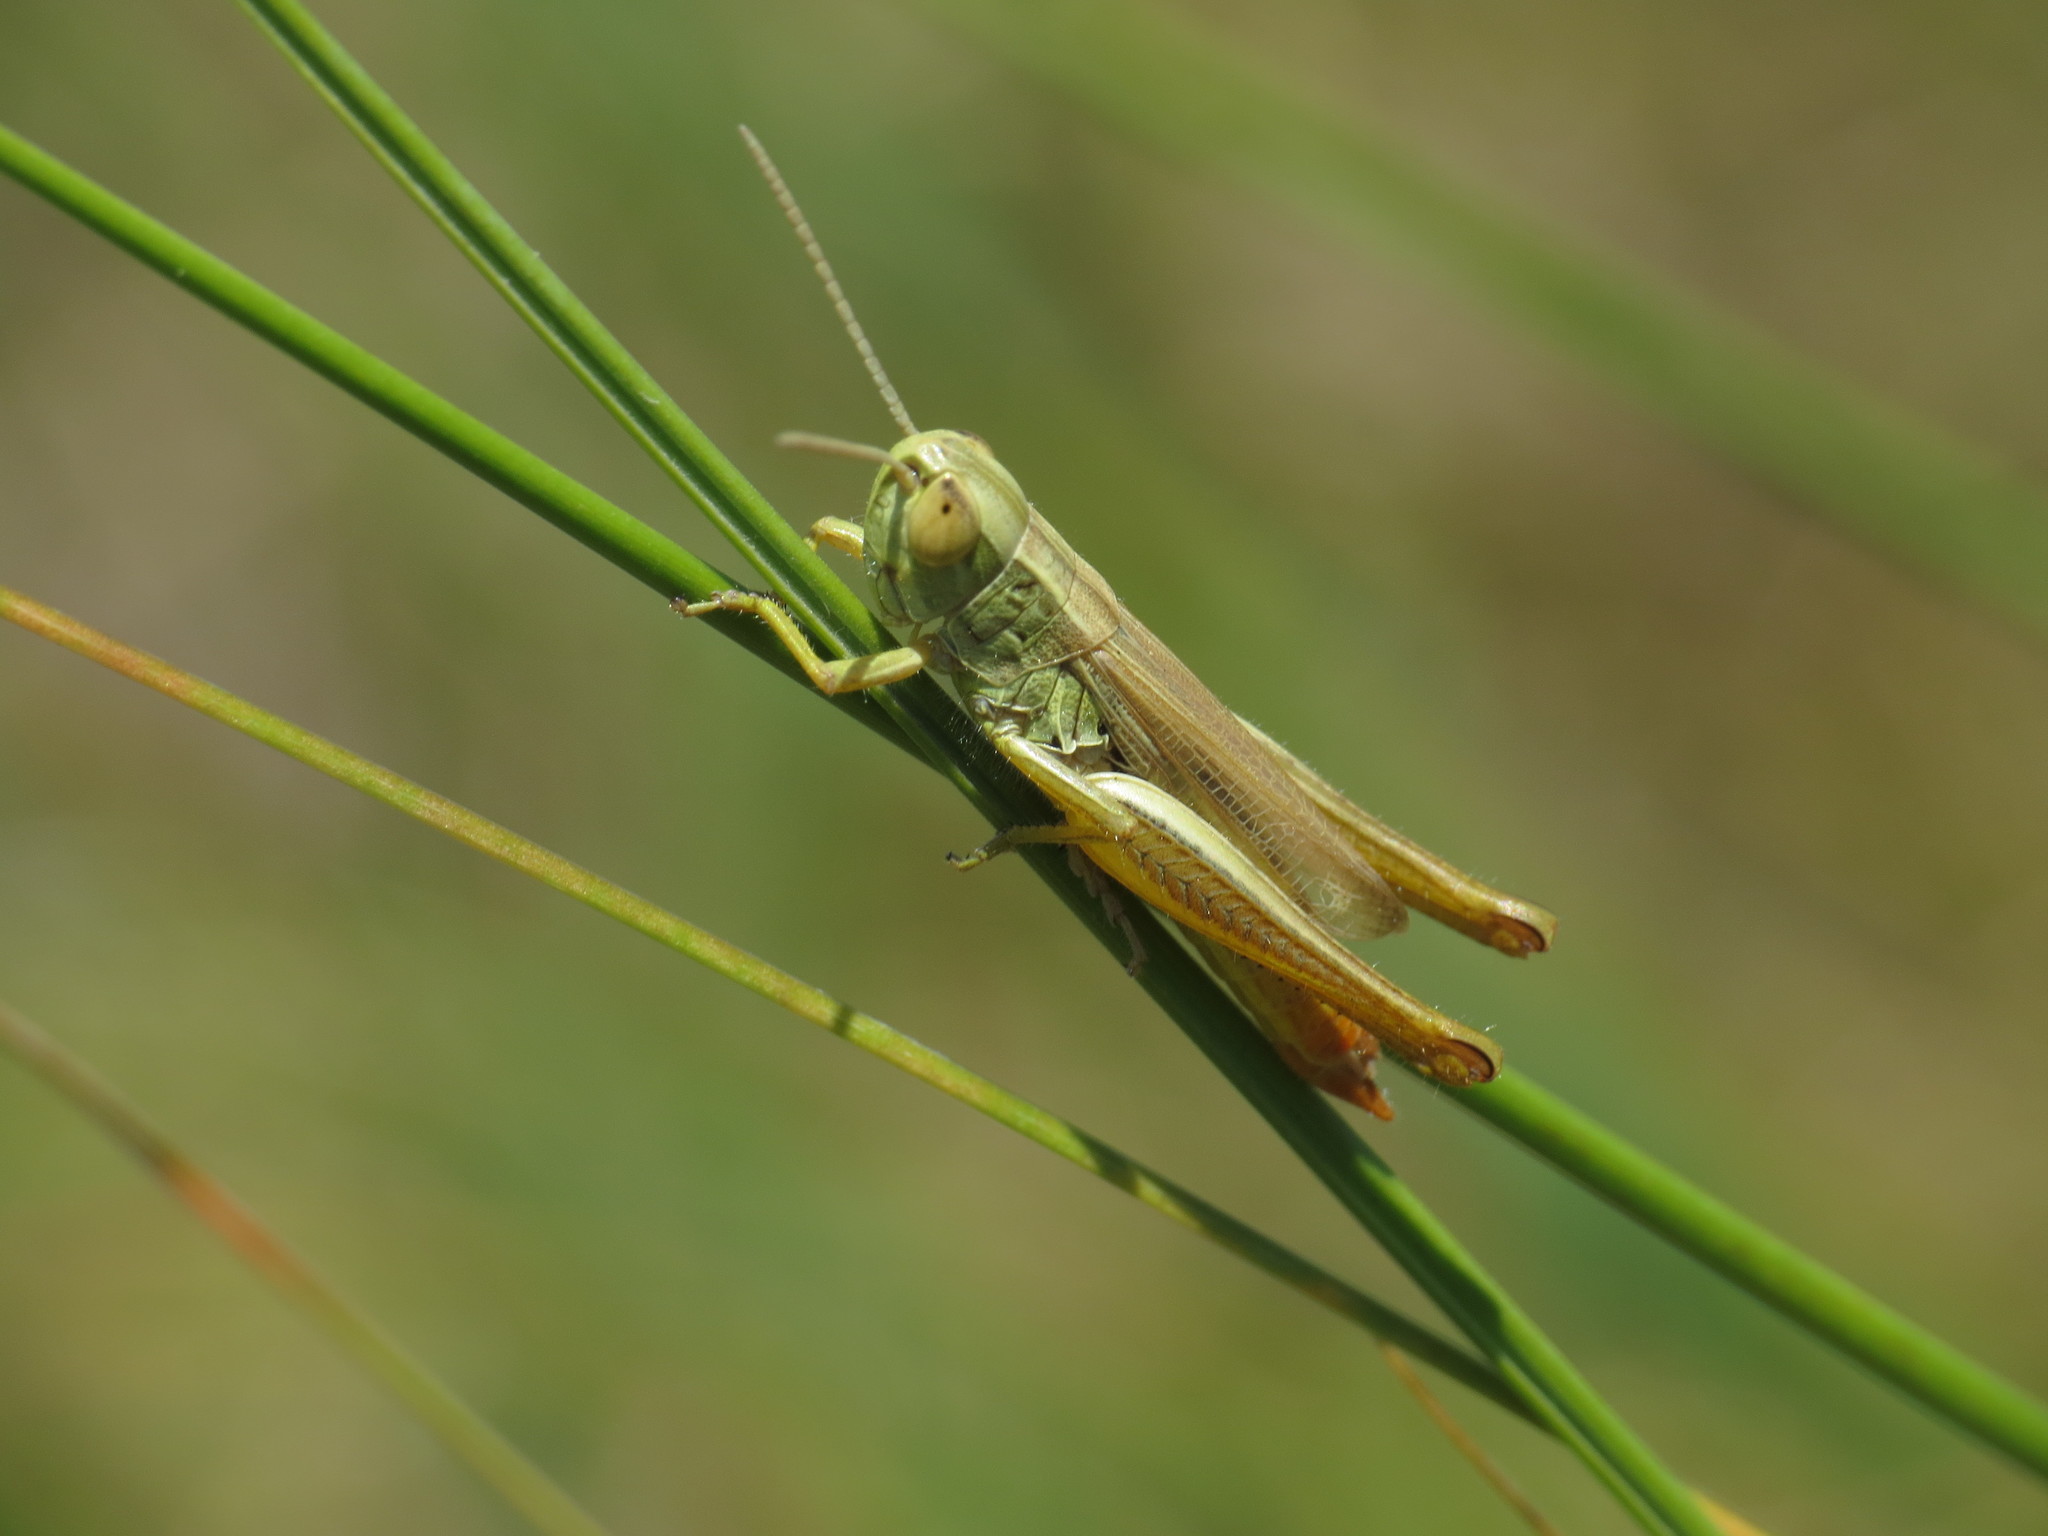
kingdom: Animalia
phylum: Arthropoda
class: Insecta
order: Orthoptera
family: Acrididae
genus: Euchorthippus
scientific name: Euchorthippus declivus
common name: Common straw grasshopper
